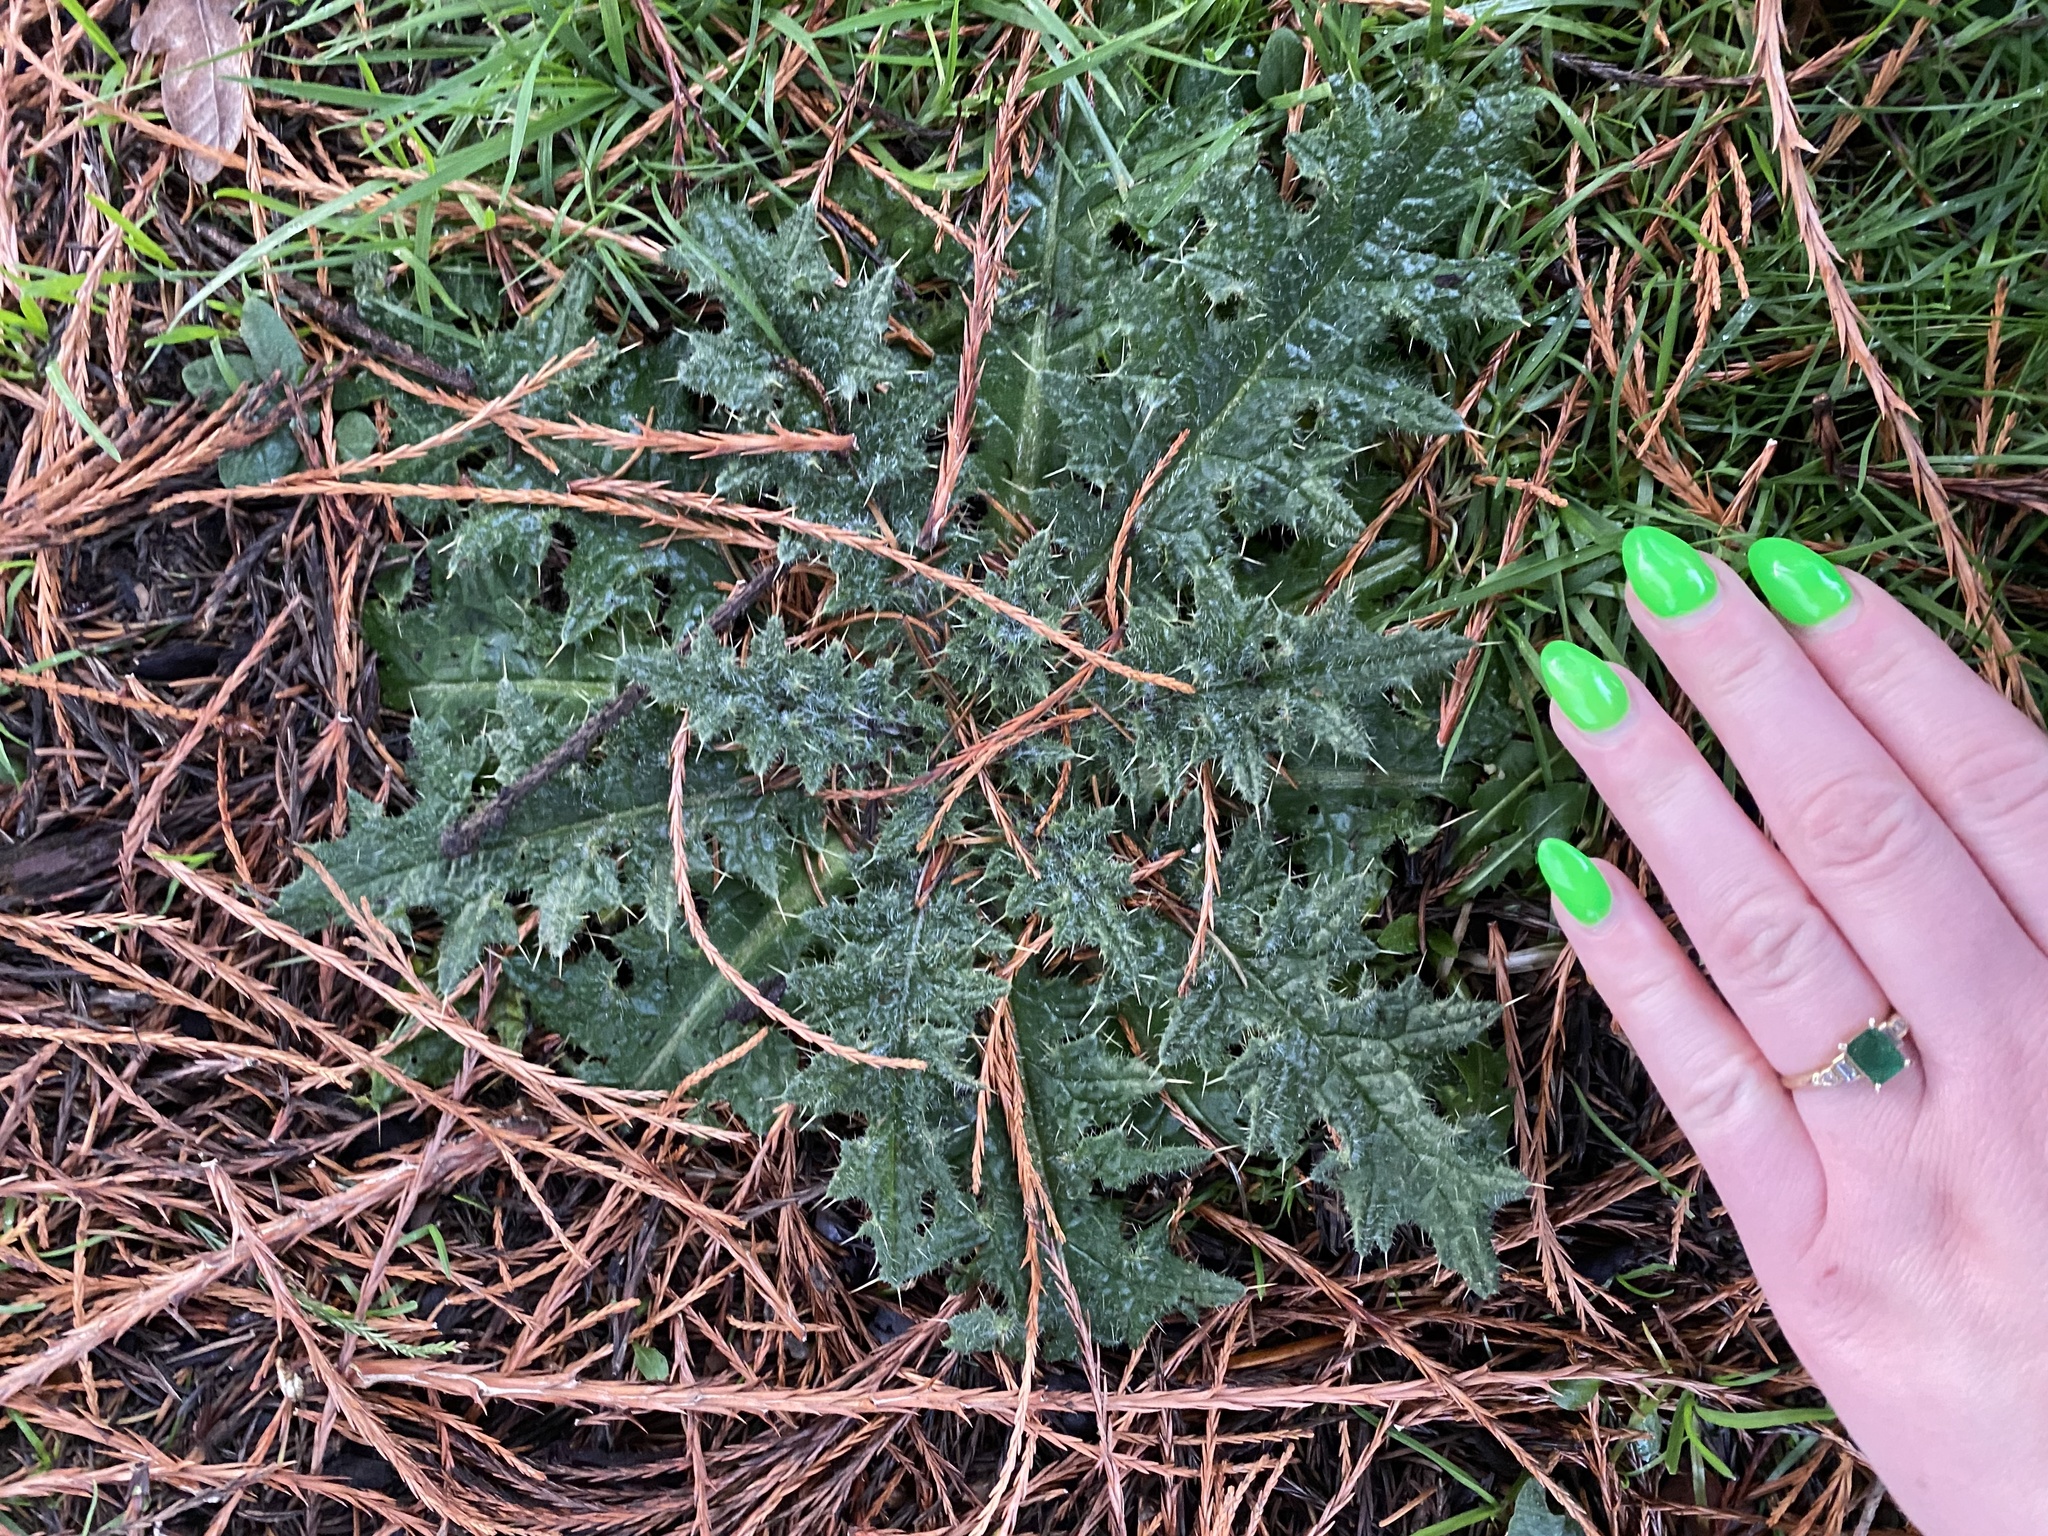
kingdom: Plantae
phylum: Tracheophyta
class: Magnoliopsida
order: Asterales
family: Asteraceae
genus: Cirsium
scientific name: Cirsium vulgare
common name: Bull thistle
